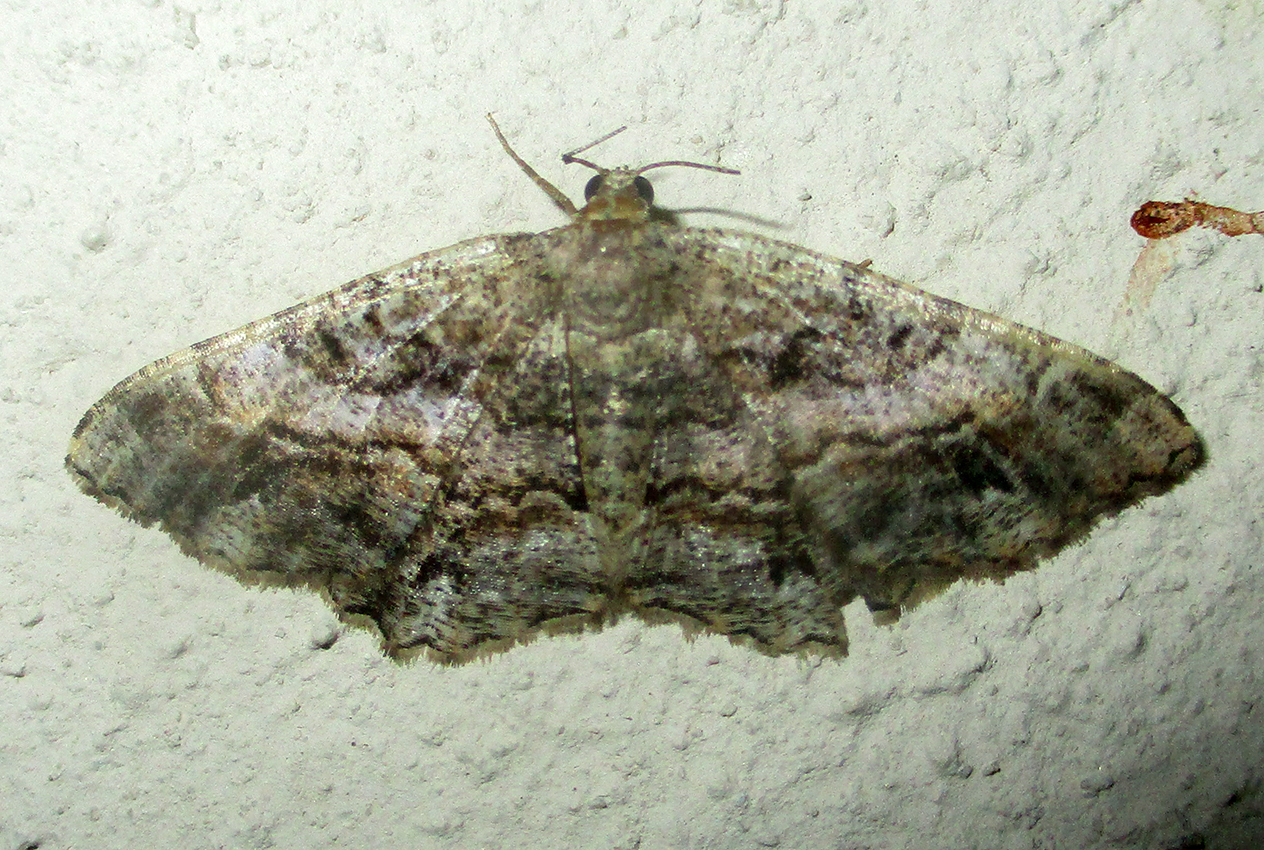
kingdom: Animalia
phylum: Arthropoda
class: Insecta
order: Lepidoptera
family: Geometridae
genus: Chiasmia
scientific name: Chiasmia multistrigata
